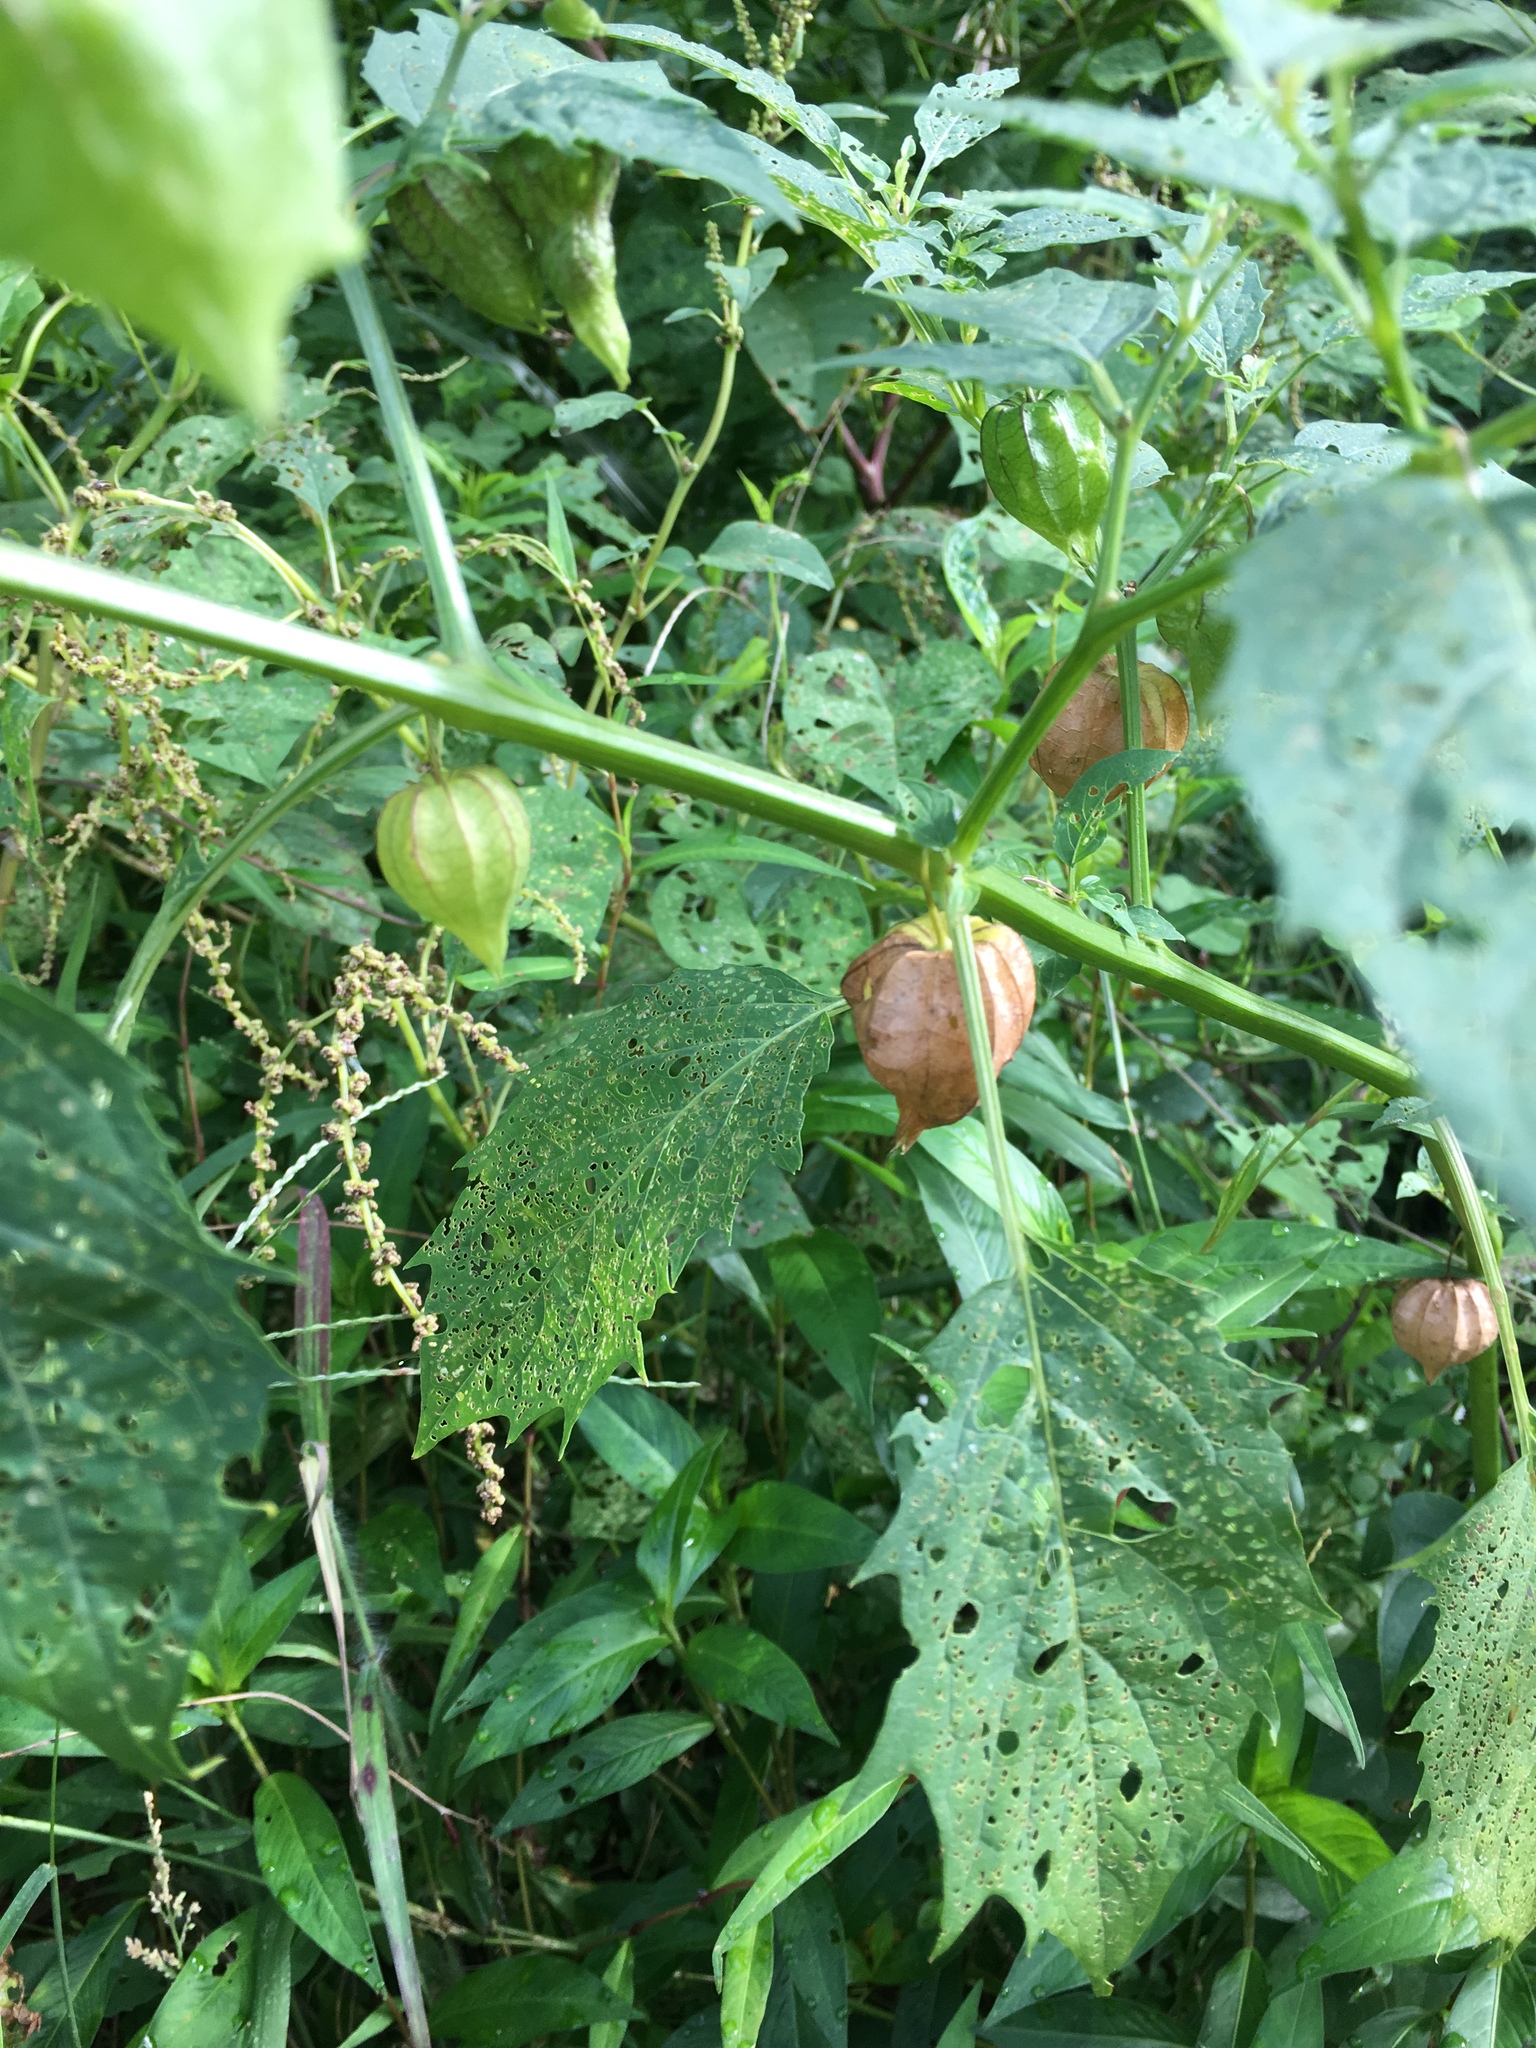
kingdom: Plantae
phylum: Tracheophyta
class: Magnoliopsida
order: Solanales
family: Solanaceae
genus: Physalis
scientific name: Physalis angulata
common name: Angular winter-cherry
